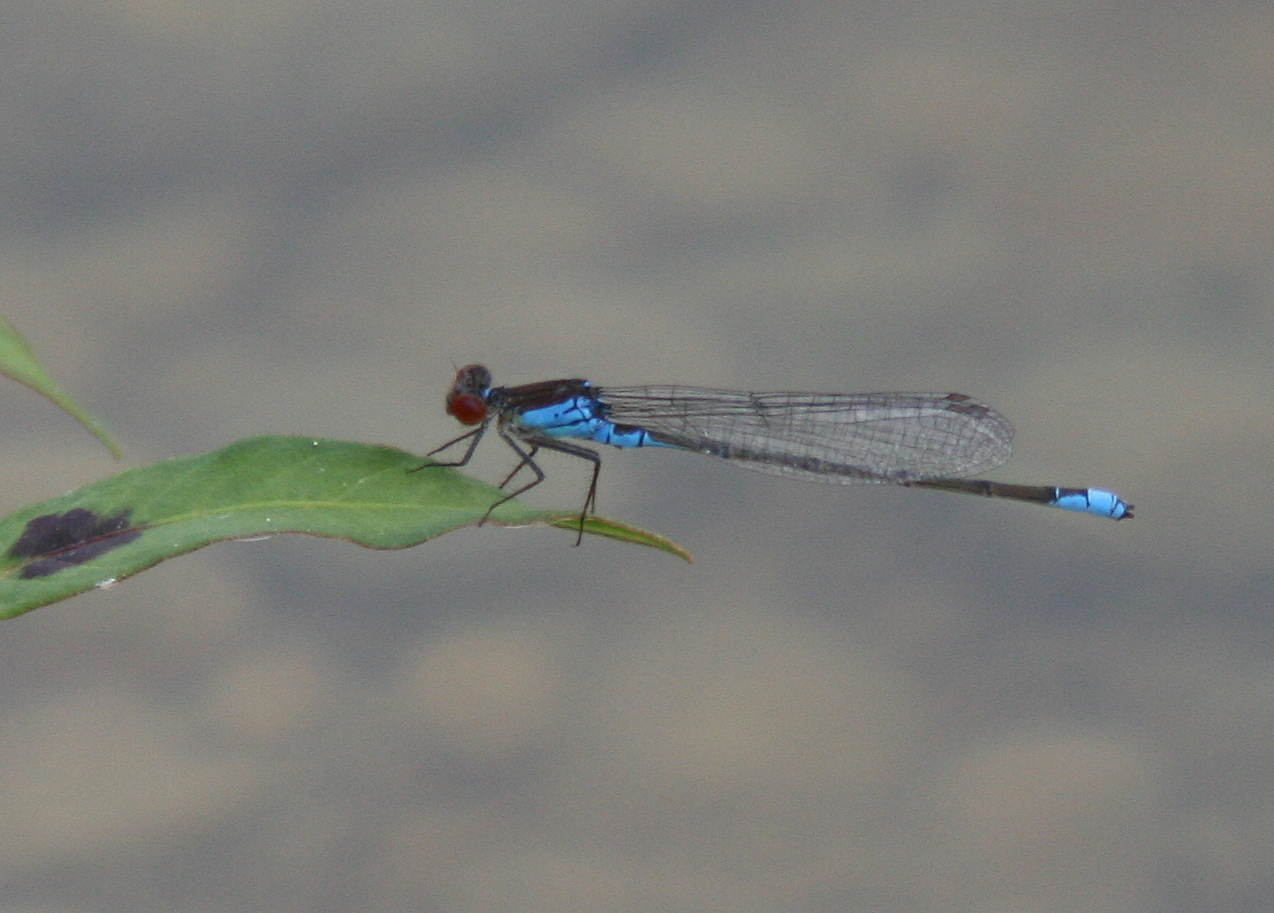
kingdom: Animalia
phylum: Arthropoda
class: Insecta
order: Odonata
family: Coenagrionidae
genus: Erythromma
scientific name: Erythromma viridulum
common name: Small red-eyed damselfly
